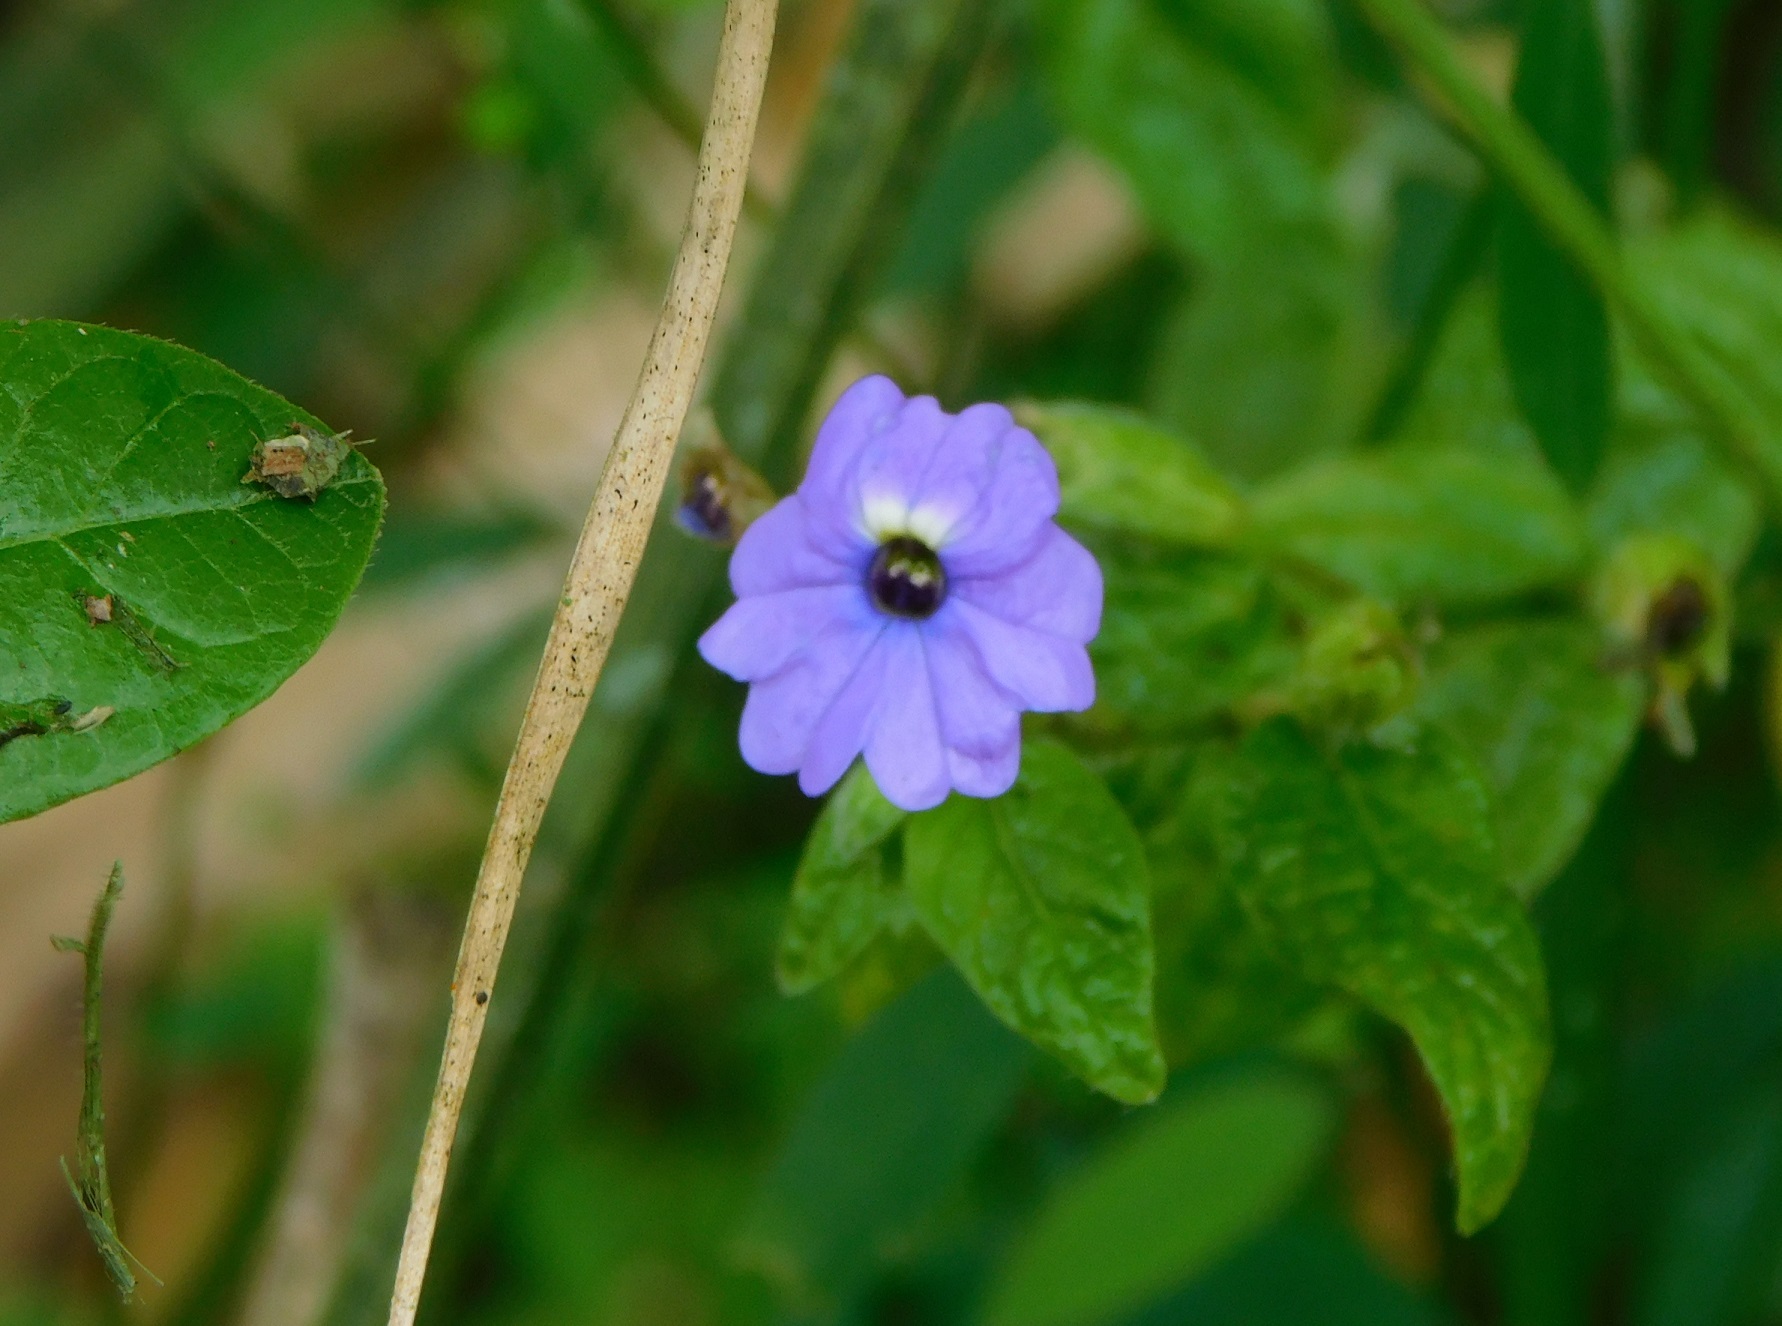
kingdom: Plantae
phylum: Tracheophyta
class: Magnoliopsida
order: Solanales
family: Solanaceae
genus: Browallia
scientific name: Browallia americana
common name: Jamaican forget-me-not
